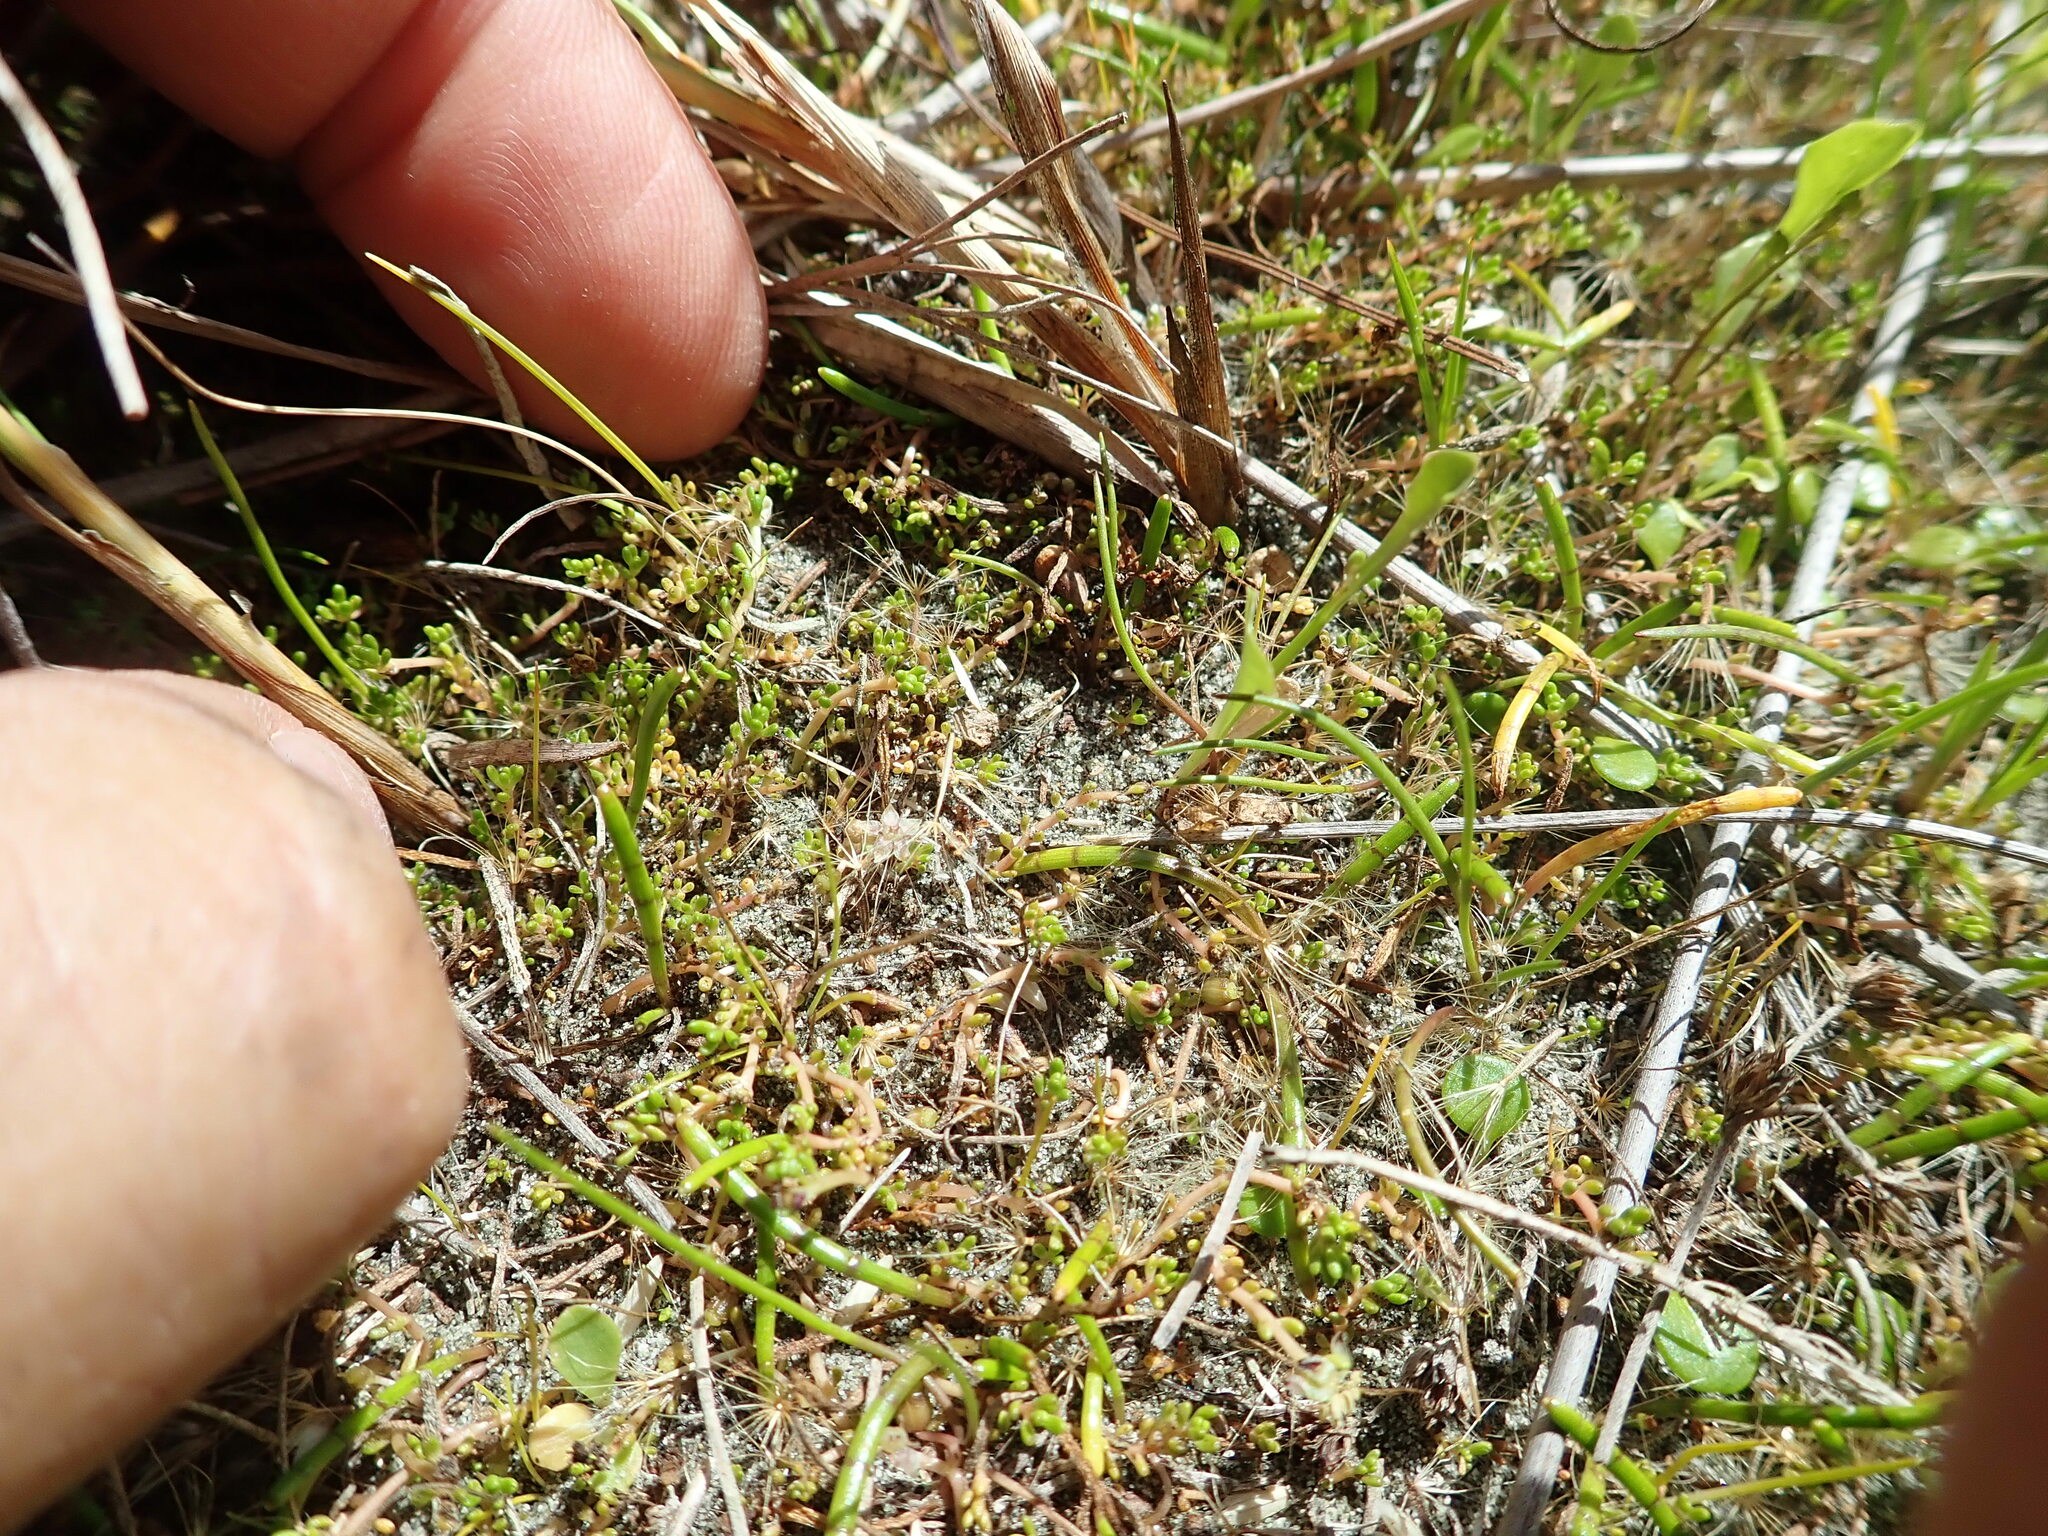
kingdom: Plantae
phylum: Tracheophyta
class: Magnoliopsida
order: Apiales
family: Apiaceae
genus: Lilaeopsis
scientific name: Lilaeopsis novae-zelandiae
